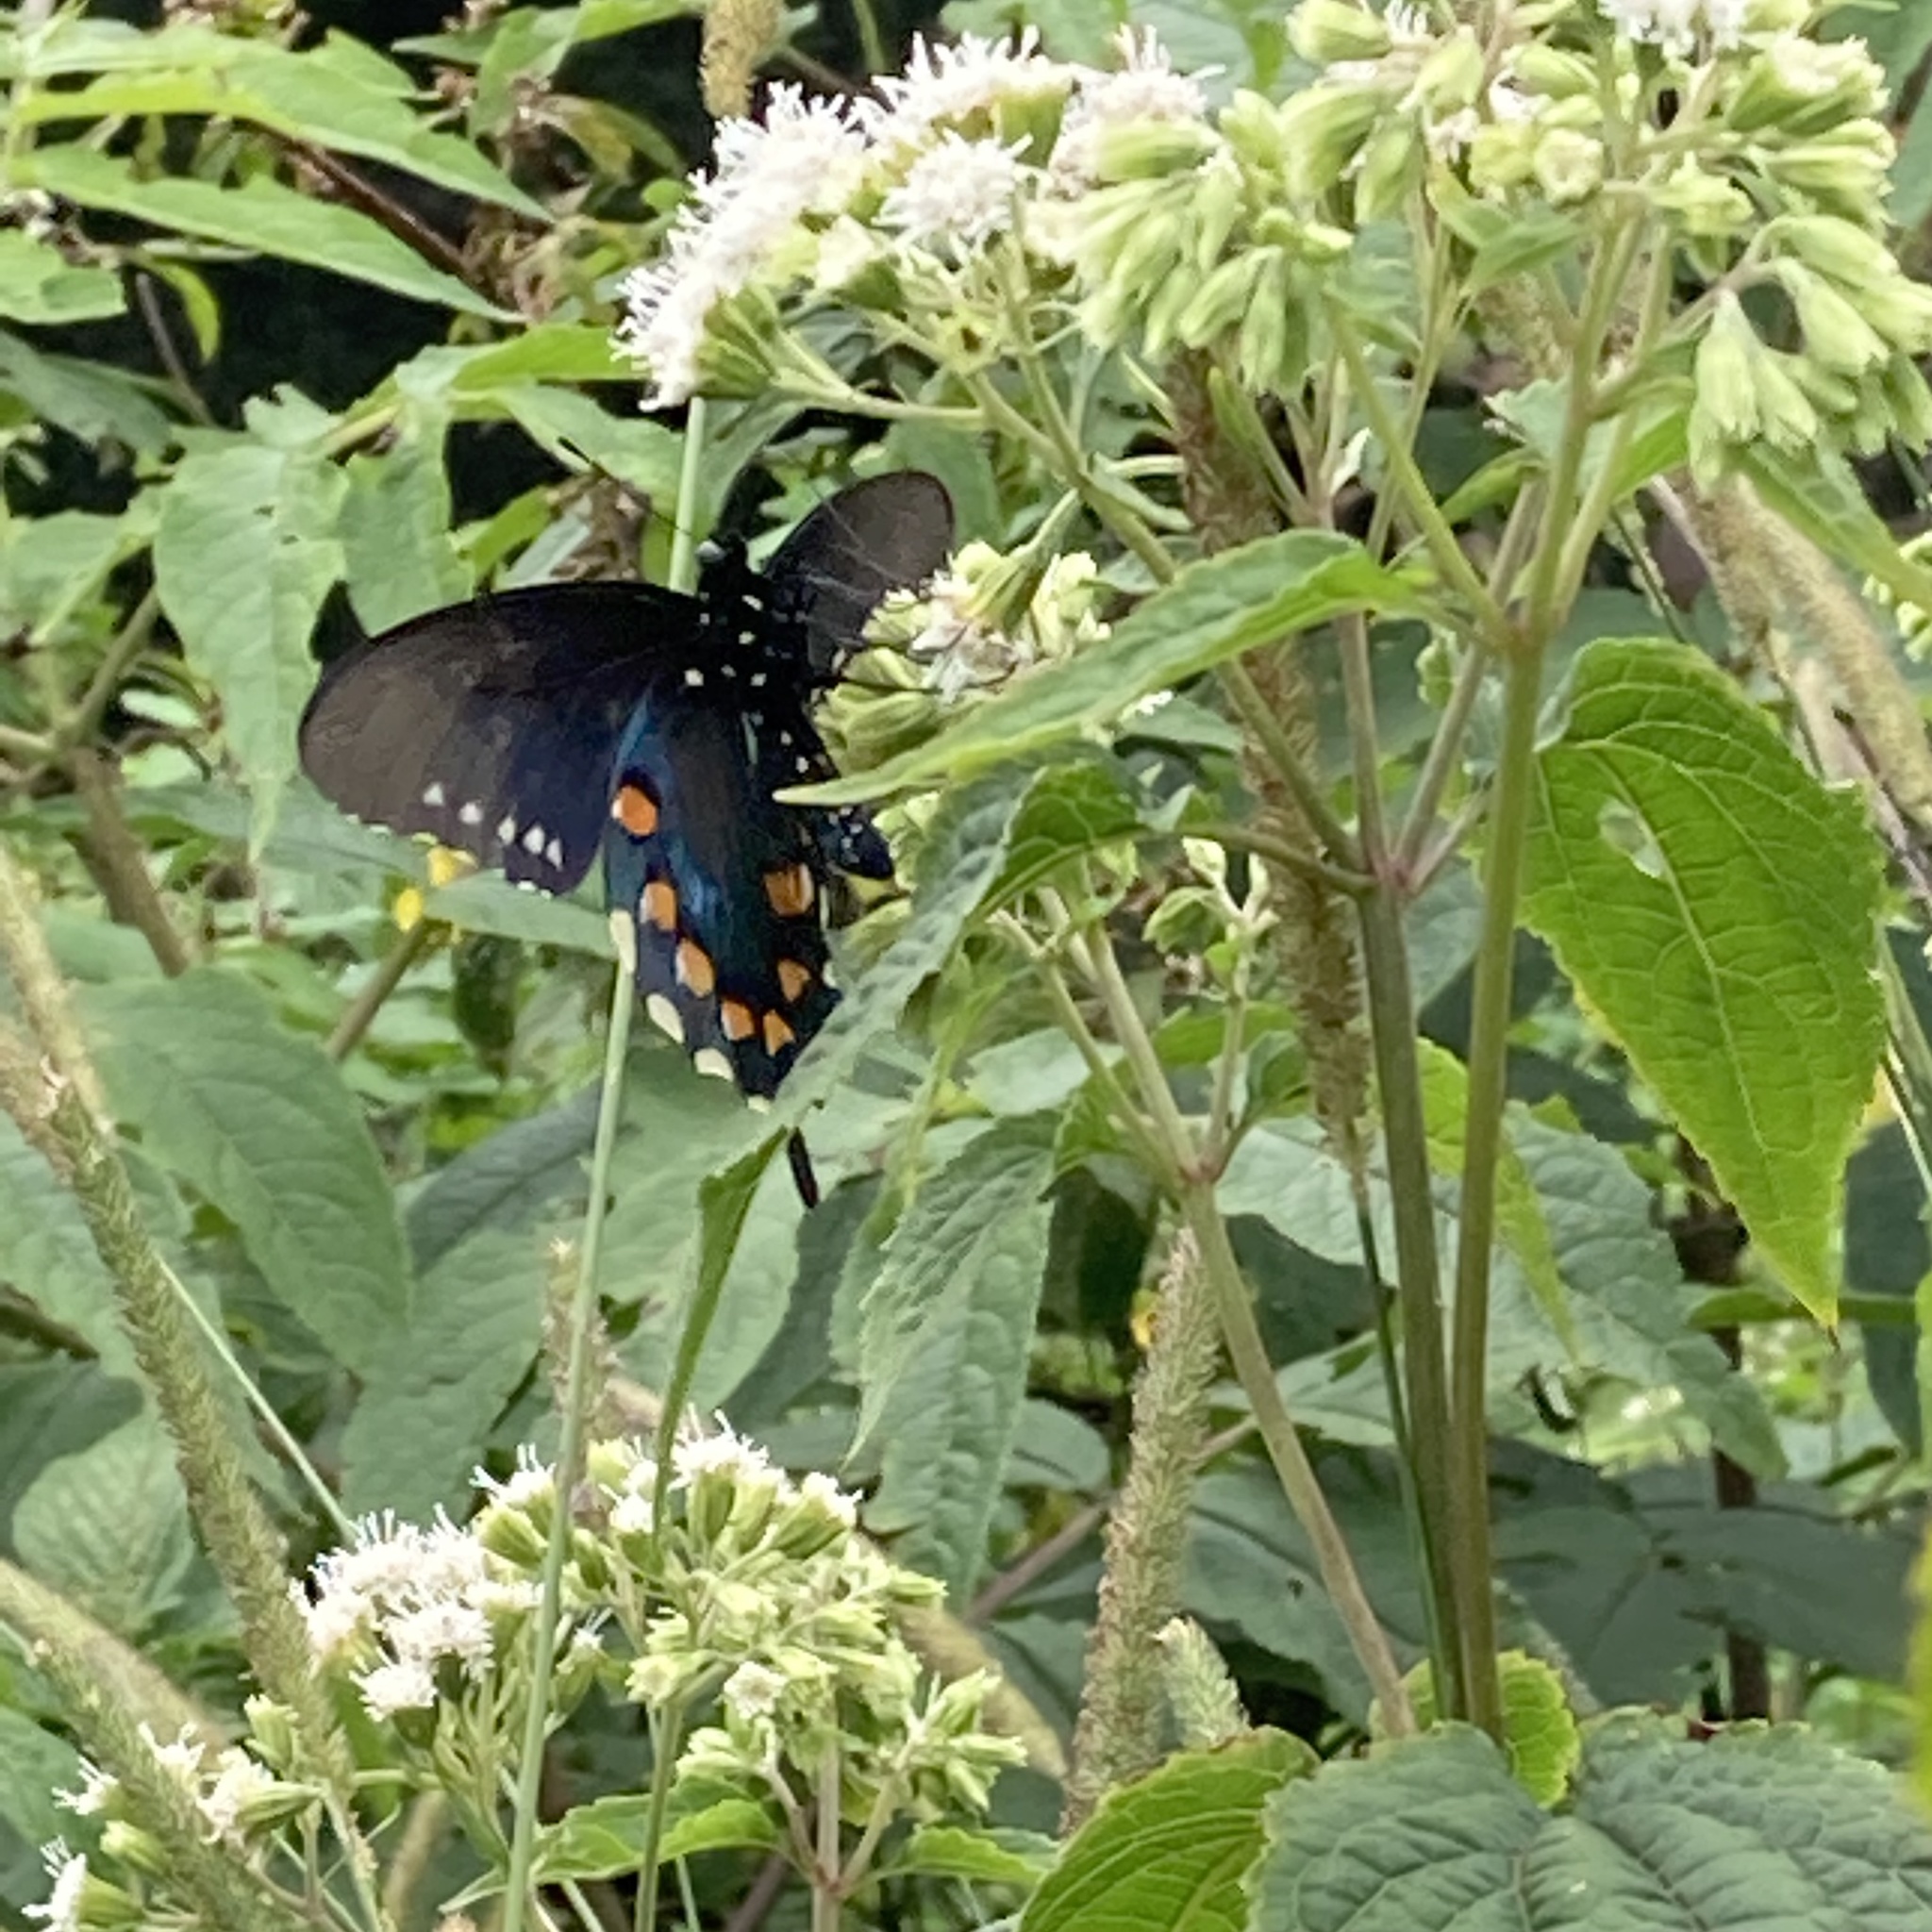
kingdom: Animalia
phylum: Arthropoda
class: Insecta
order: Lepidoptera
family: Papilionidae
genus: Battus
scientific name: Battus philenor
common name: Pipevine swallowtail
